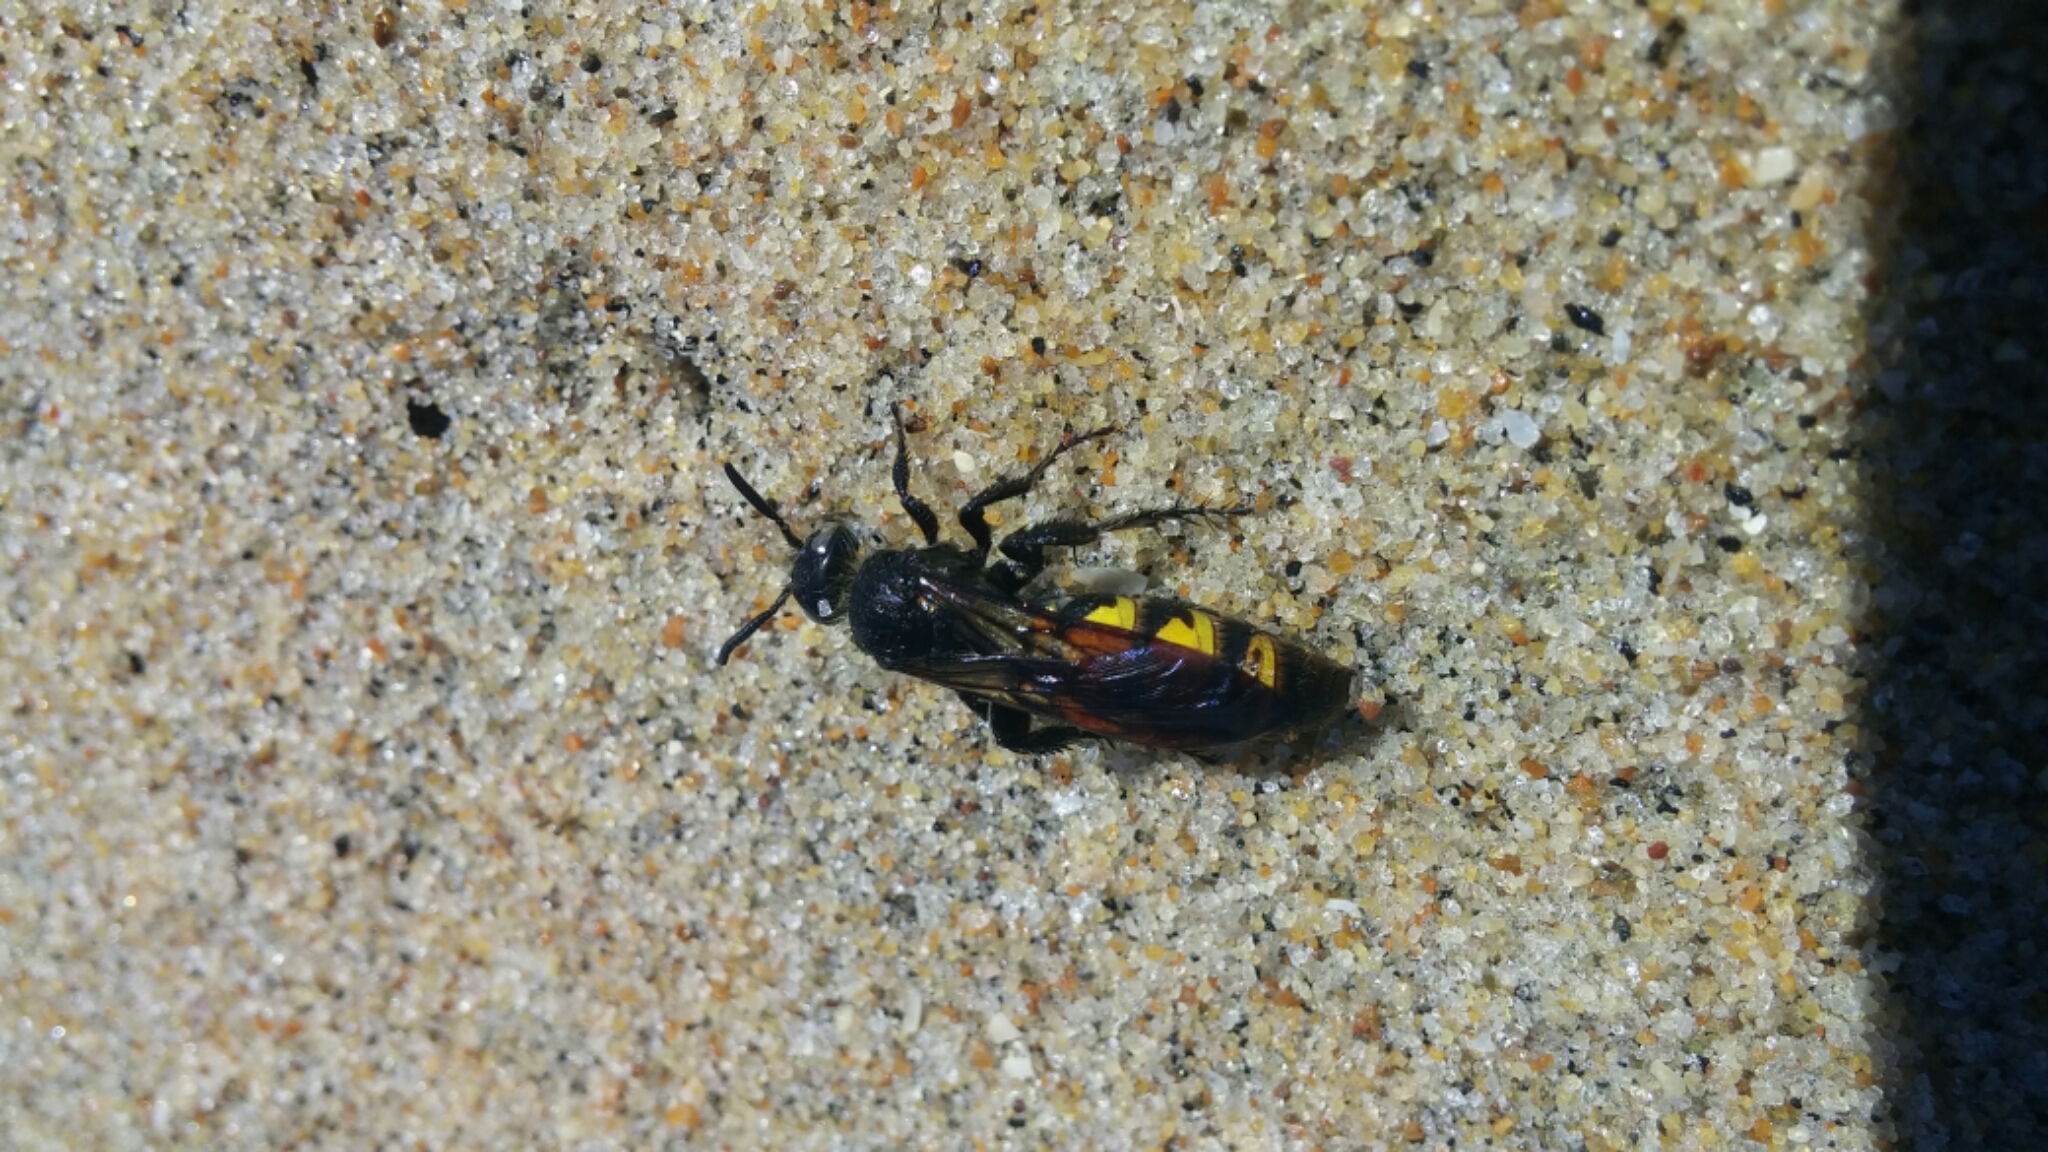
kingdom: Animalia
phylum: Arthropoda
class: Insecta
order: Hymenoptera
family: Scoliidae
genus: Dielis
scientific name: Dielis
